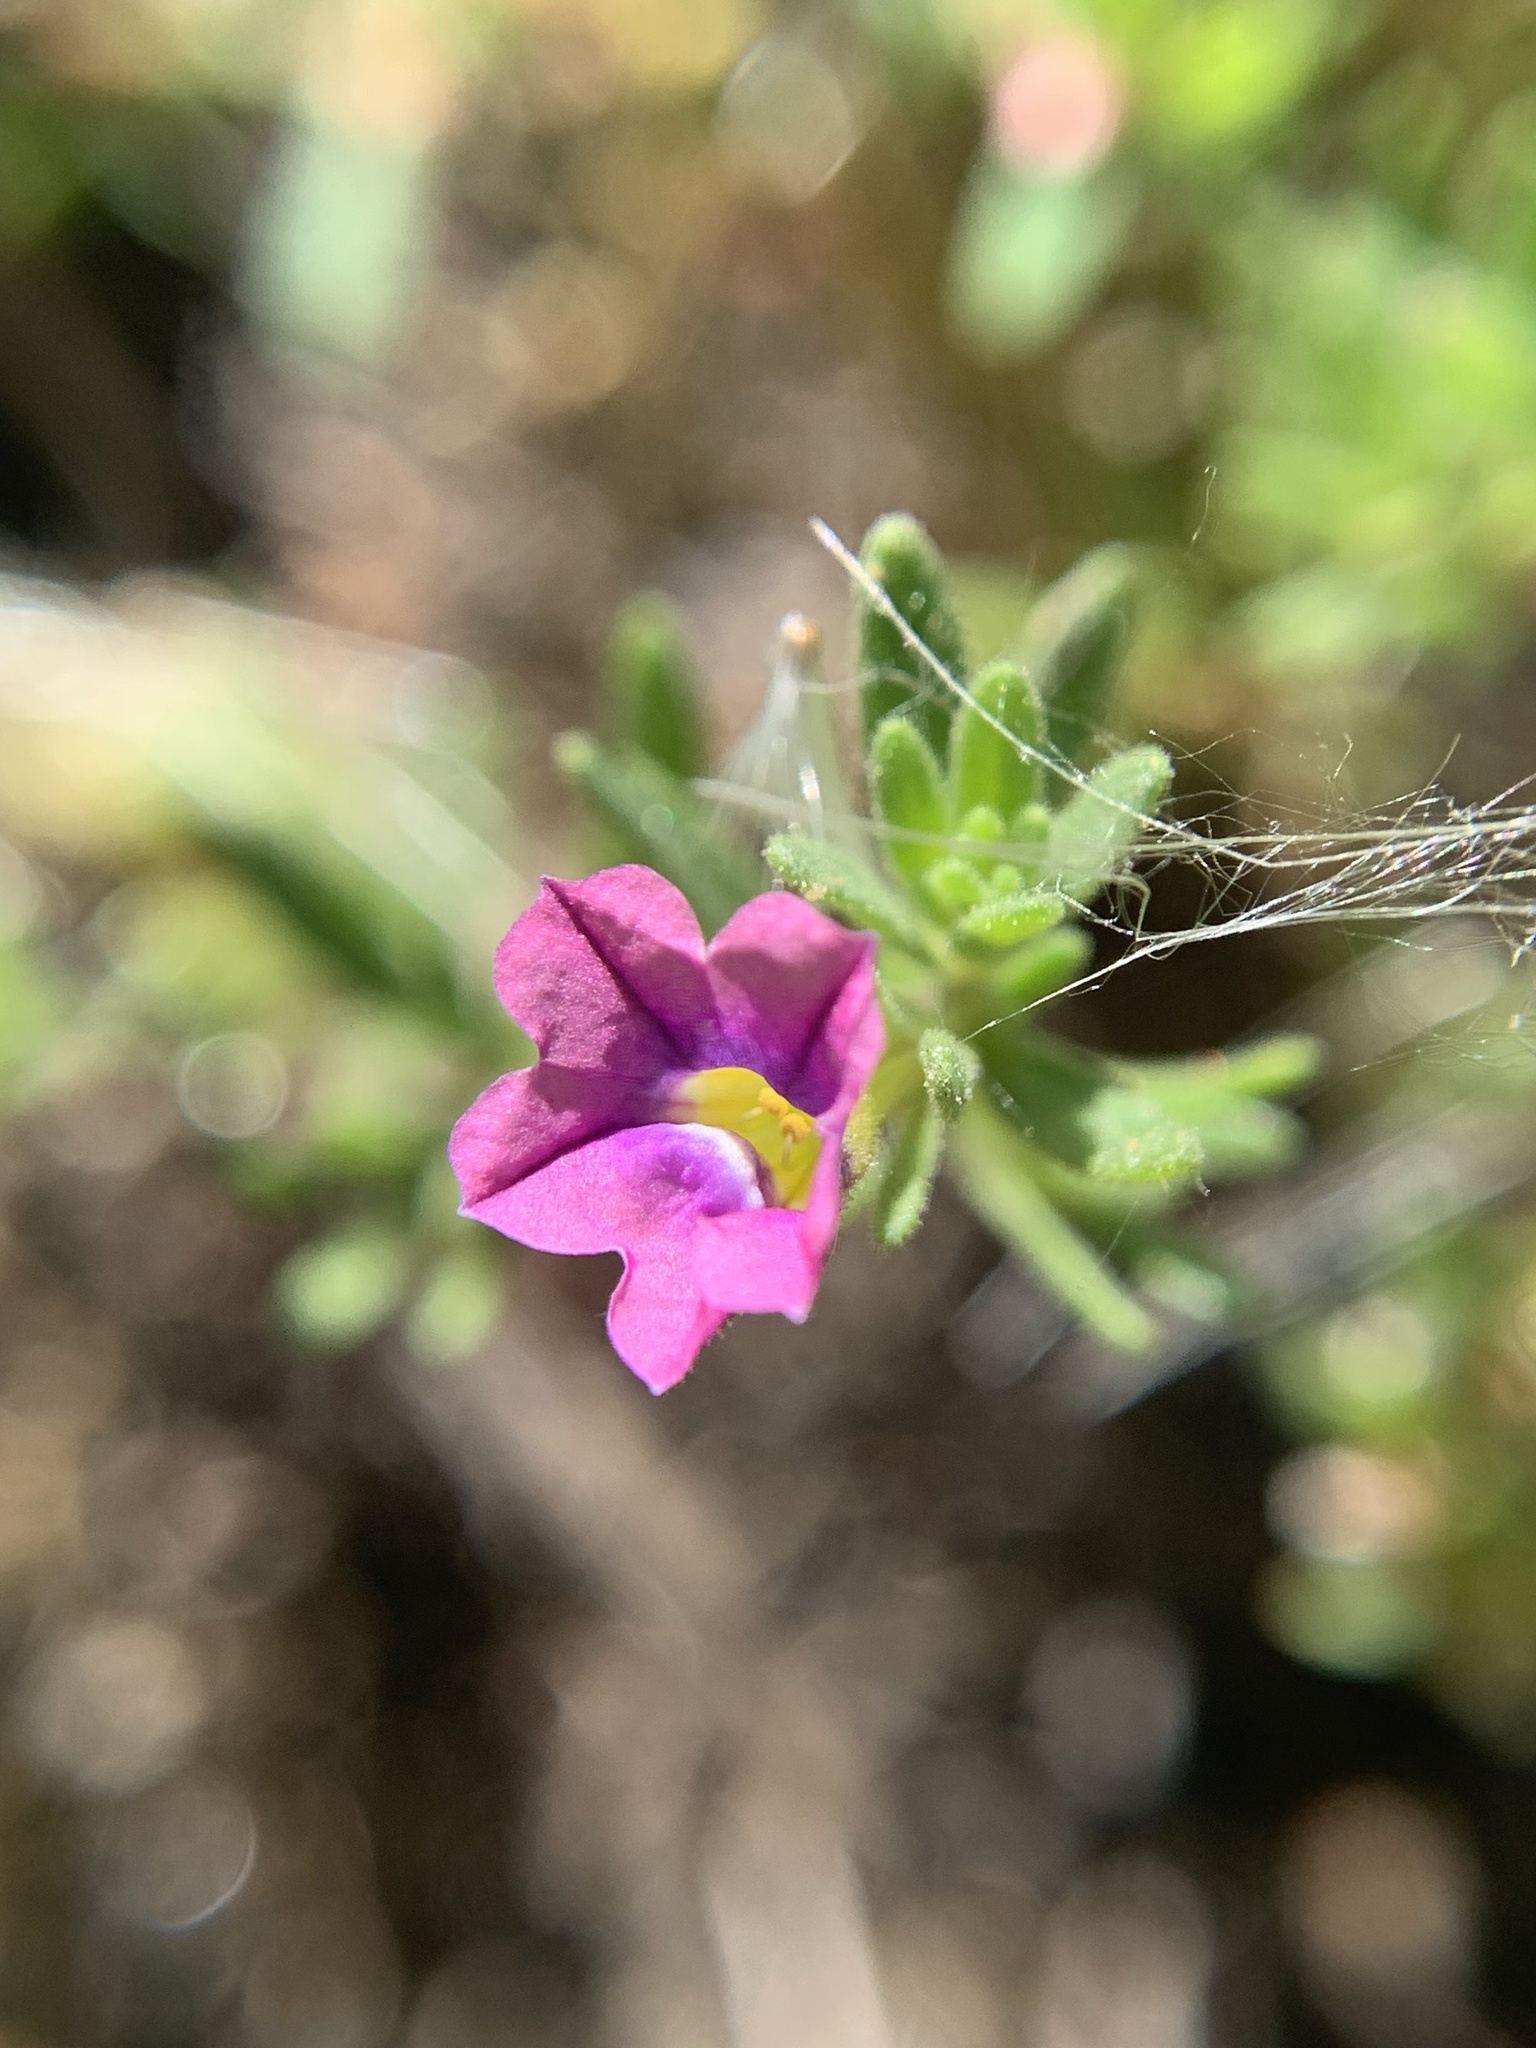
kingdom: Plantae
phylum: Tracheophyta
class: Magnoliopsida
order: Solanales
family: Solanaceae
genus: Calibrachoa
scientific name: Calibrachoa parviflora
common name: Seaside petunia
